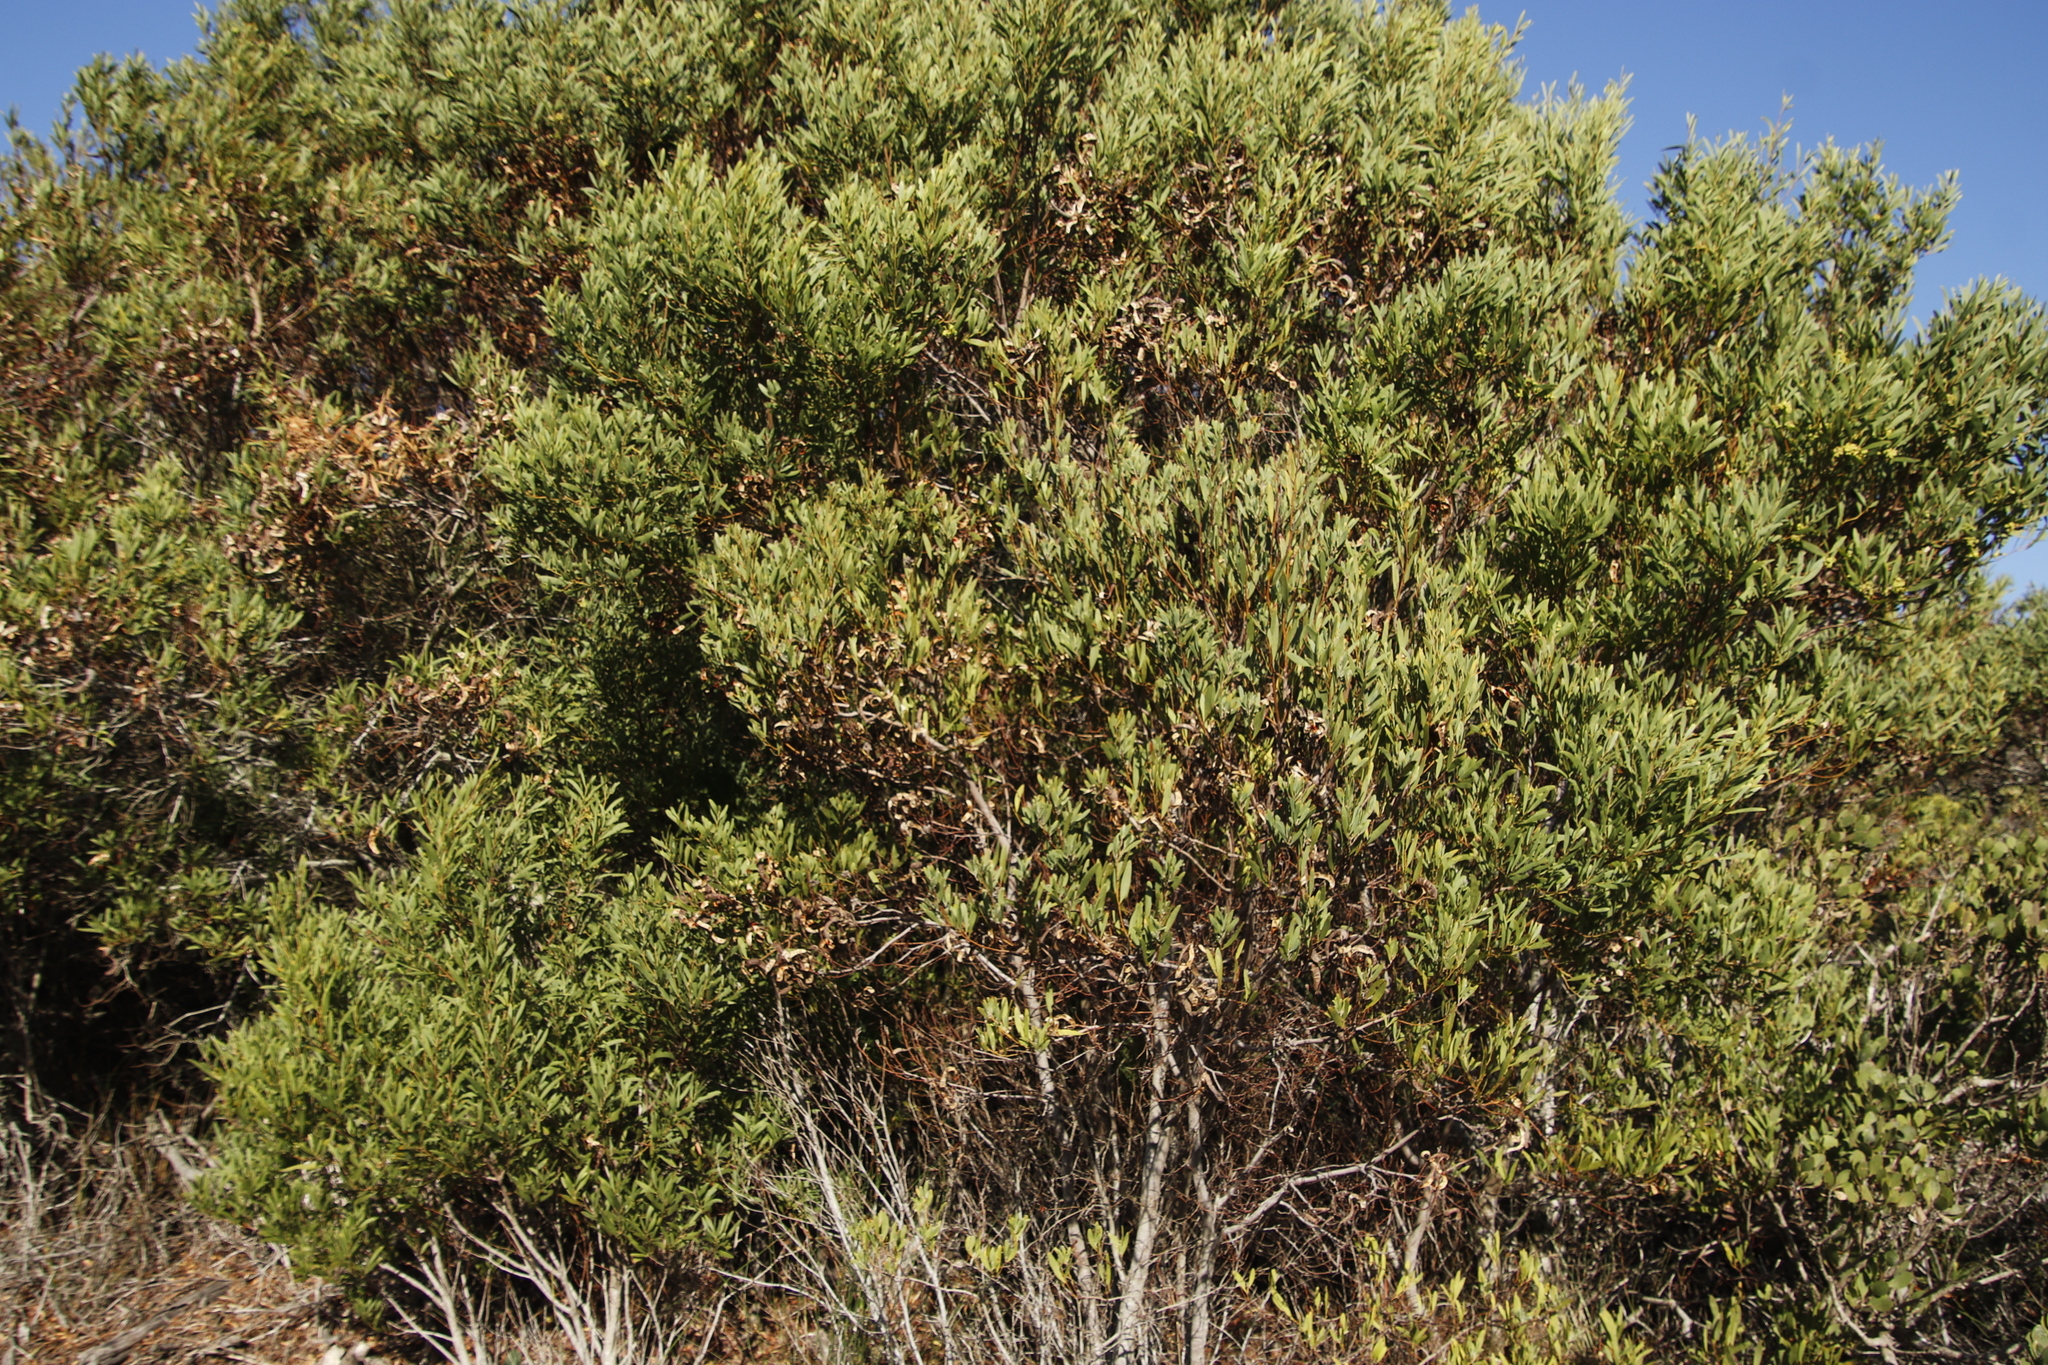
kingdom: Plantae
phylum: Tracheophyta
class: Magnoliopsida
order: Fabales
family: Fabaceae
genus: Acacia
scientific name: Acacia cyclops
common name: Coastal wattle
